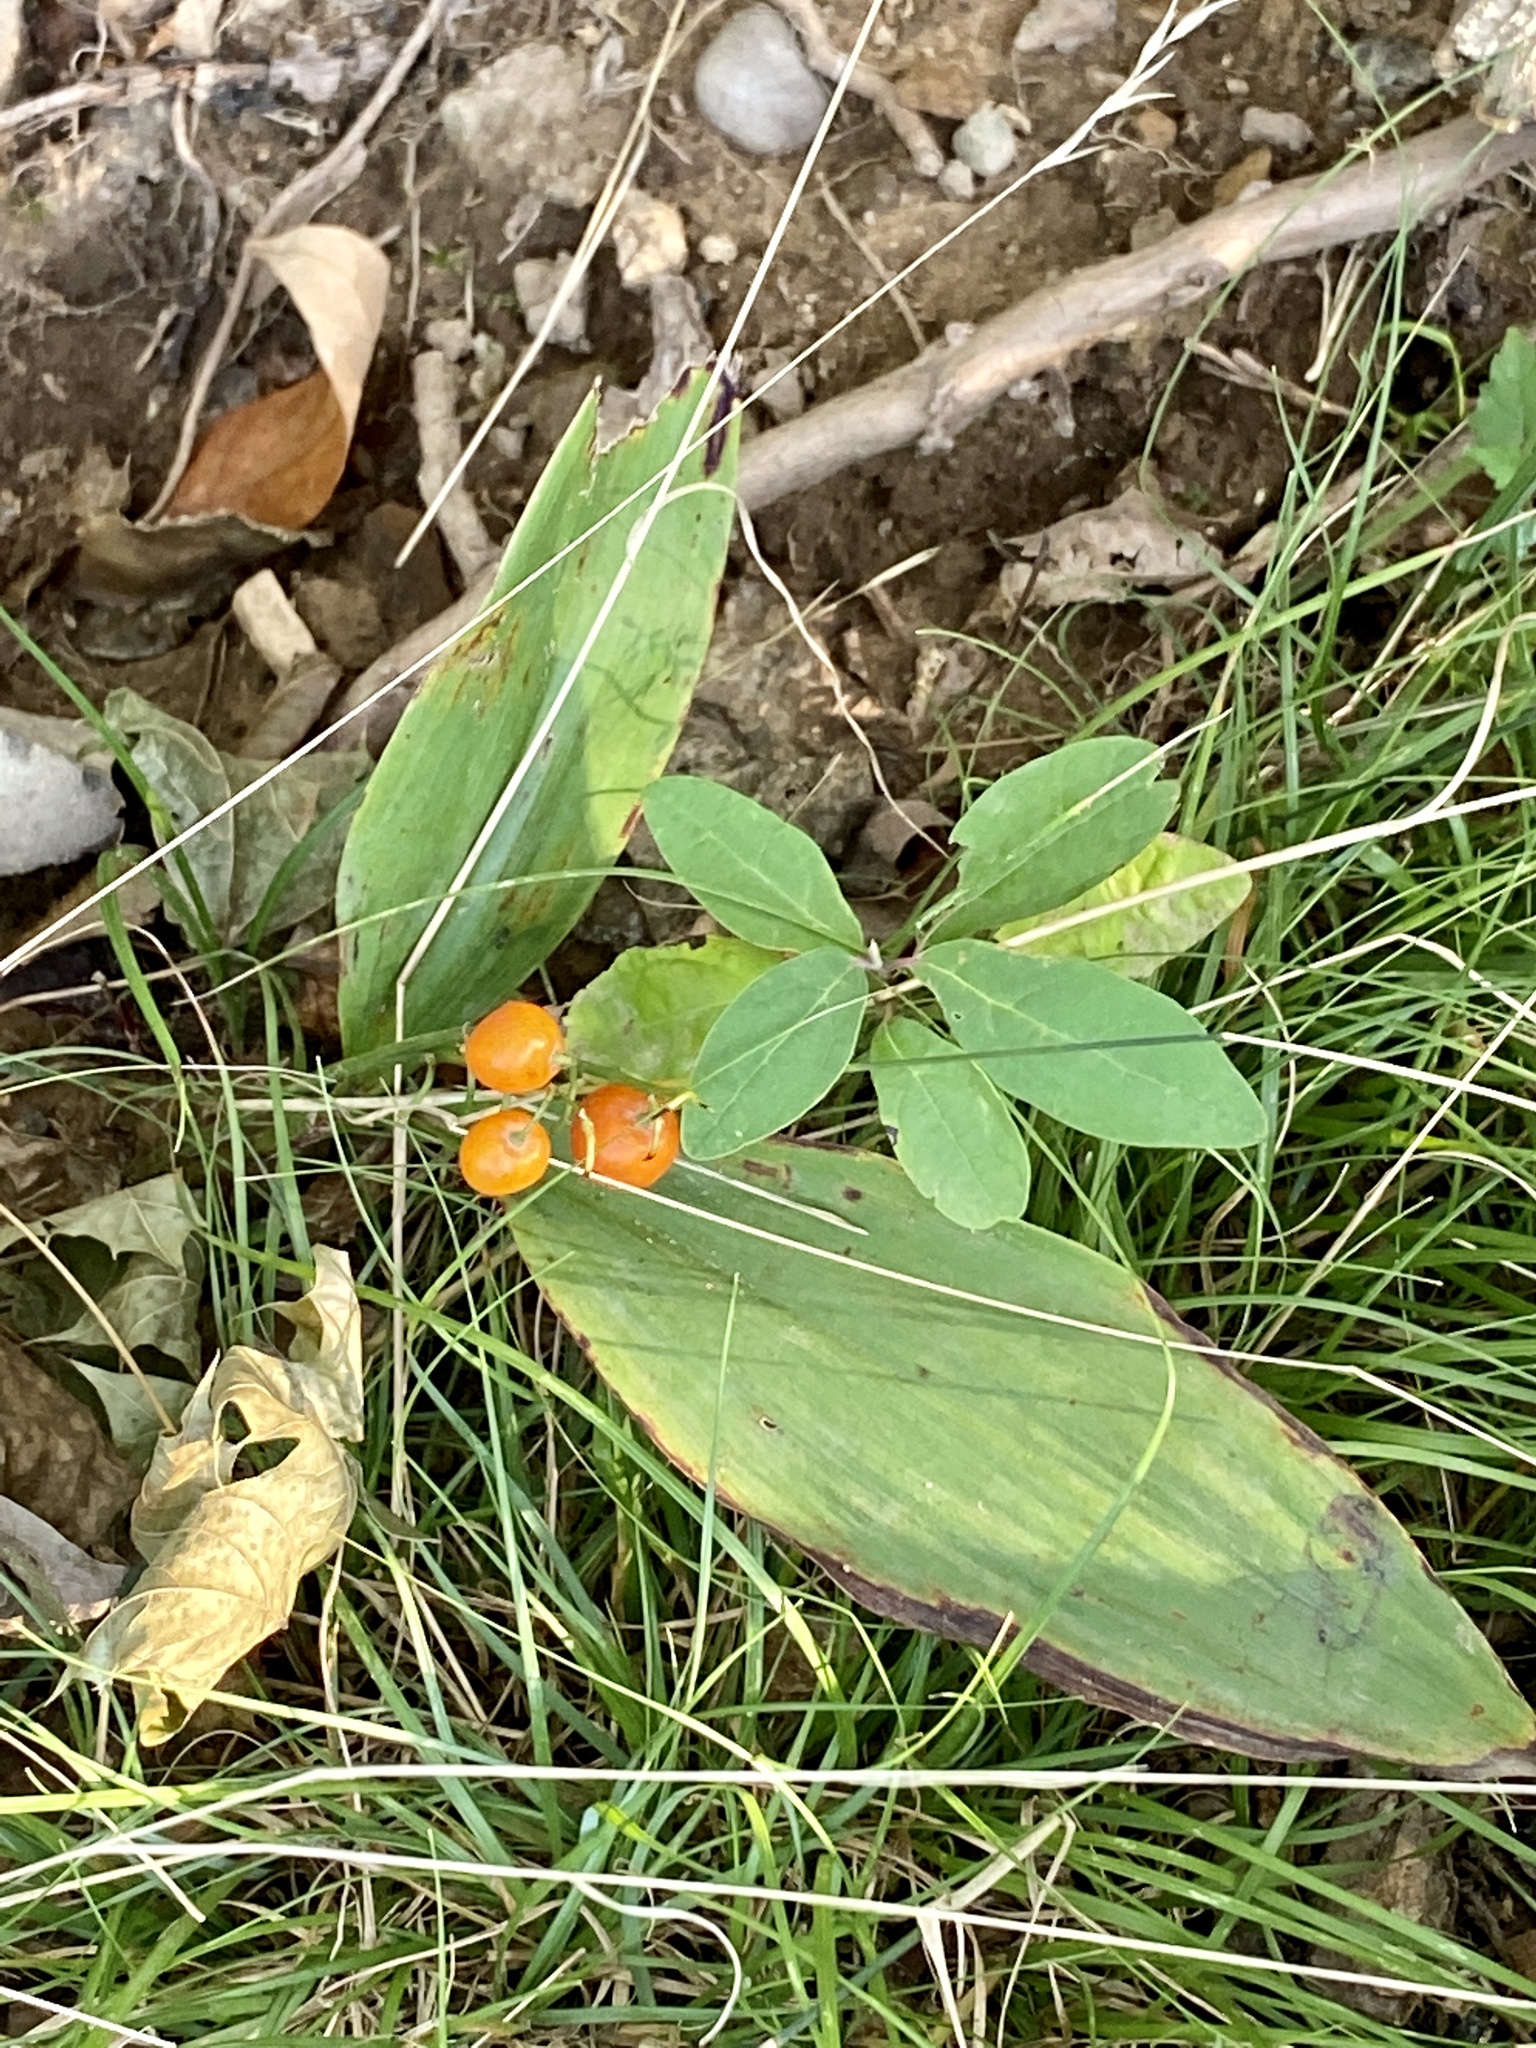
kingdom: Plantae
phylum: Tracheophyta
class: Liliopsida
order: Asparagales
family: Asparagaceae
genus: Convallaria
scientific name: Convallaria majalis
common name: Lily-of-the-valley
